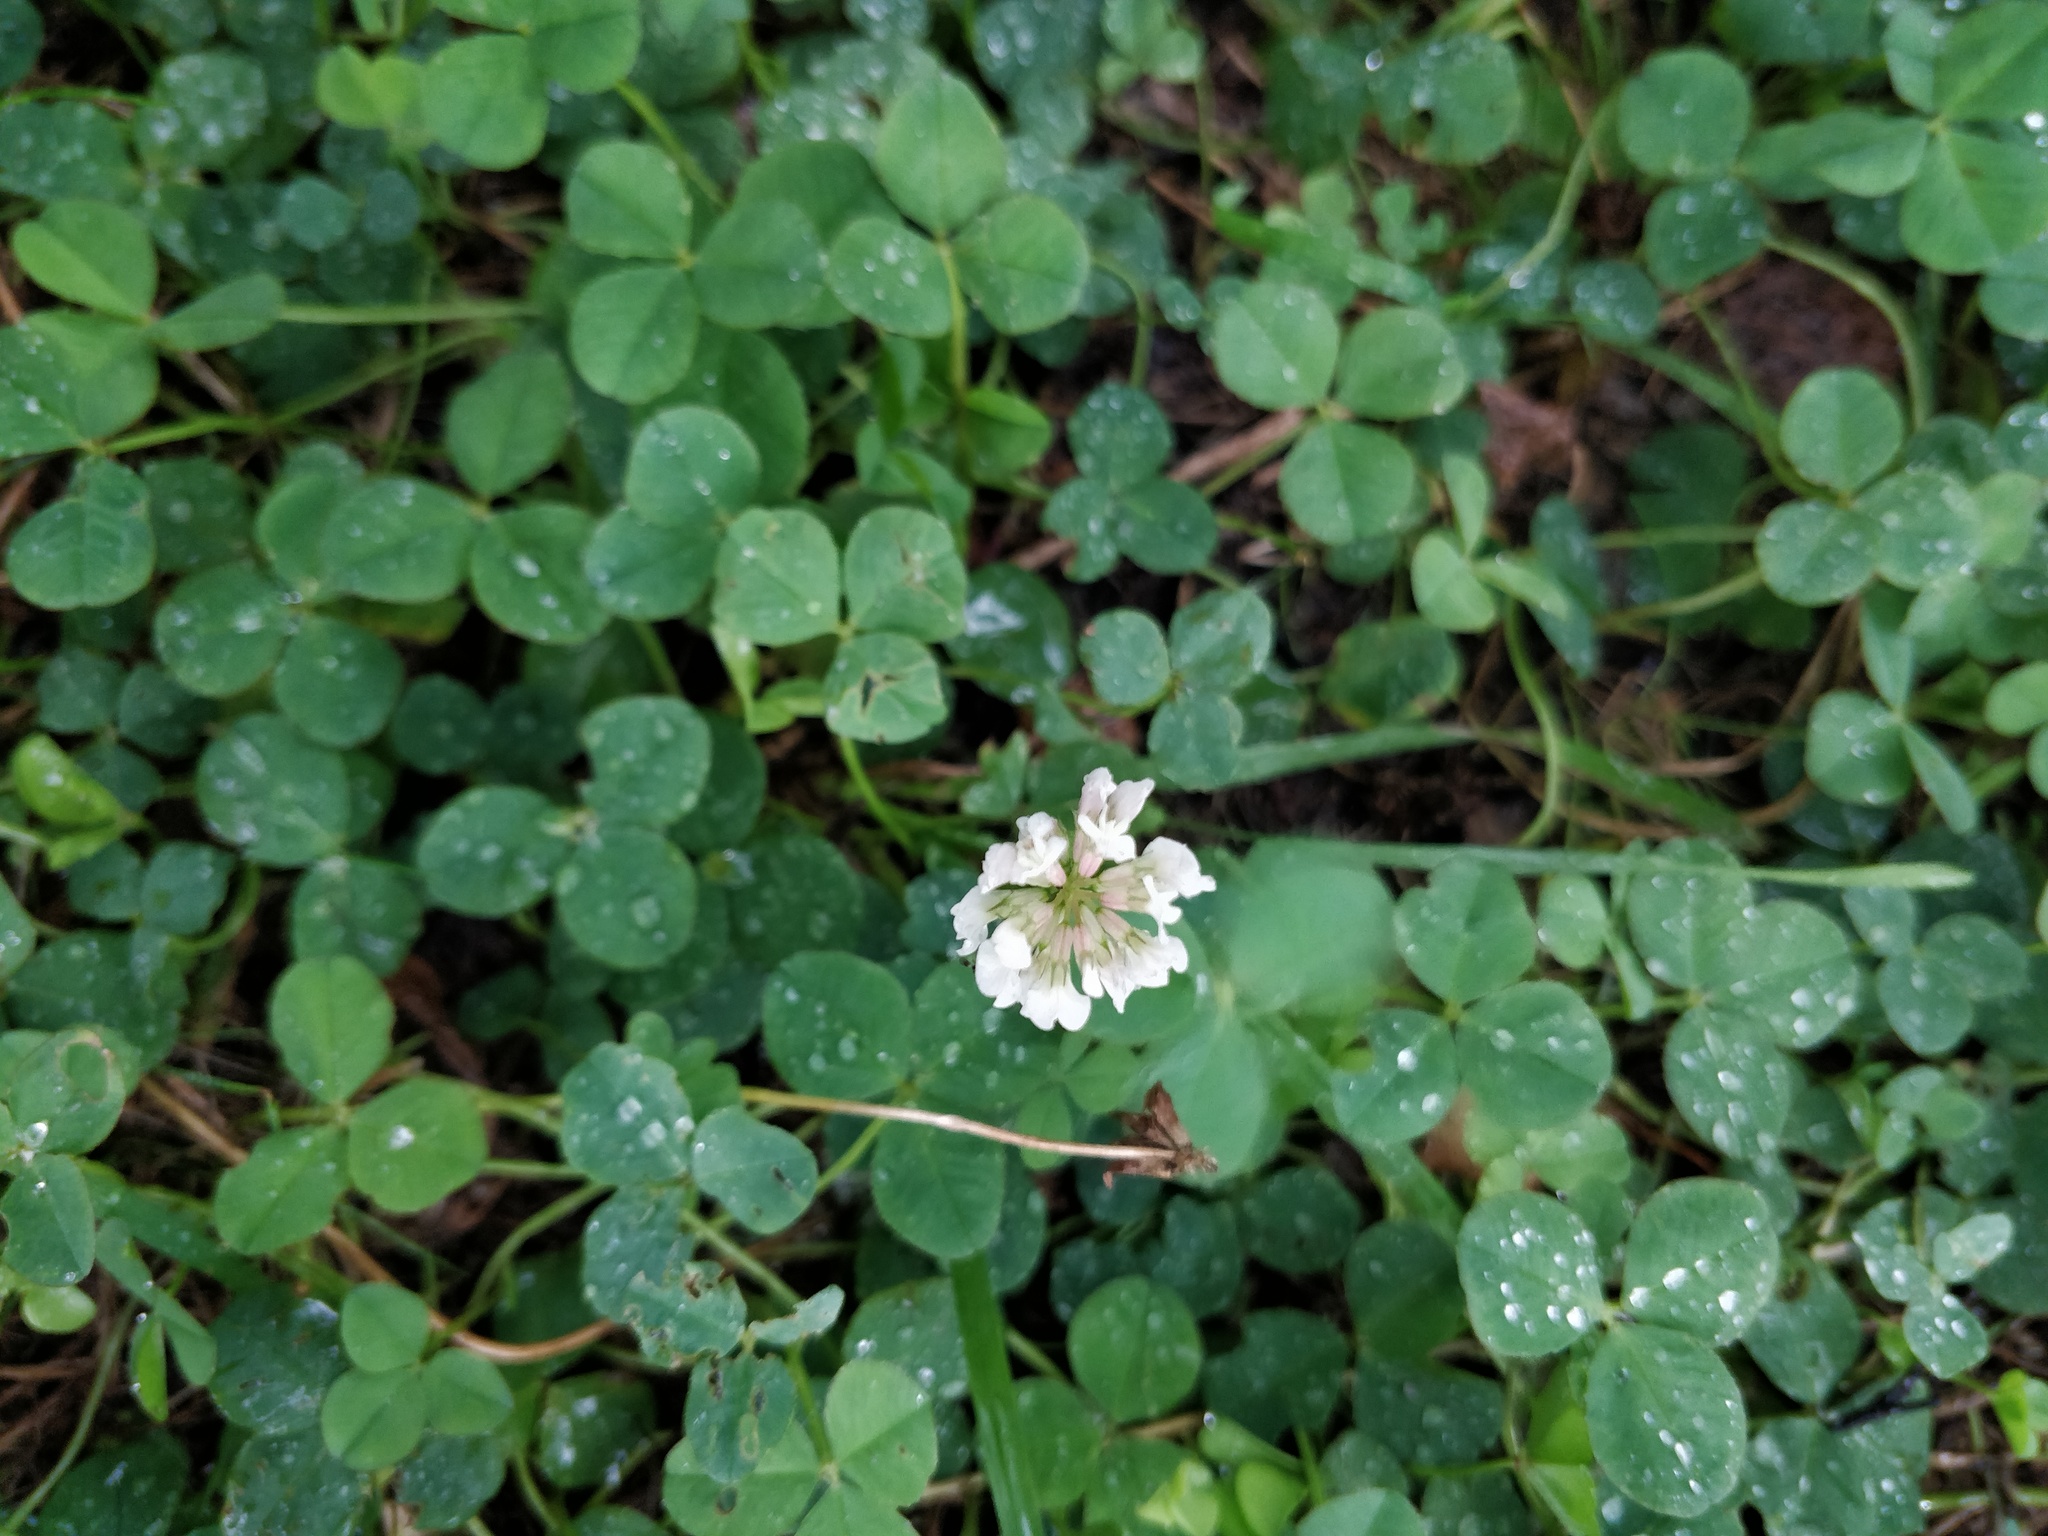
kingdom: Plantae
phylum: Tracheophyta
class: Magnoliopsida
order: Fabales
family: Fabaceae
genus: Trifolium
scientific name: Trifolium repens
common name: White clover
